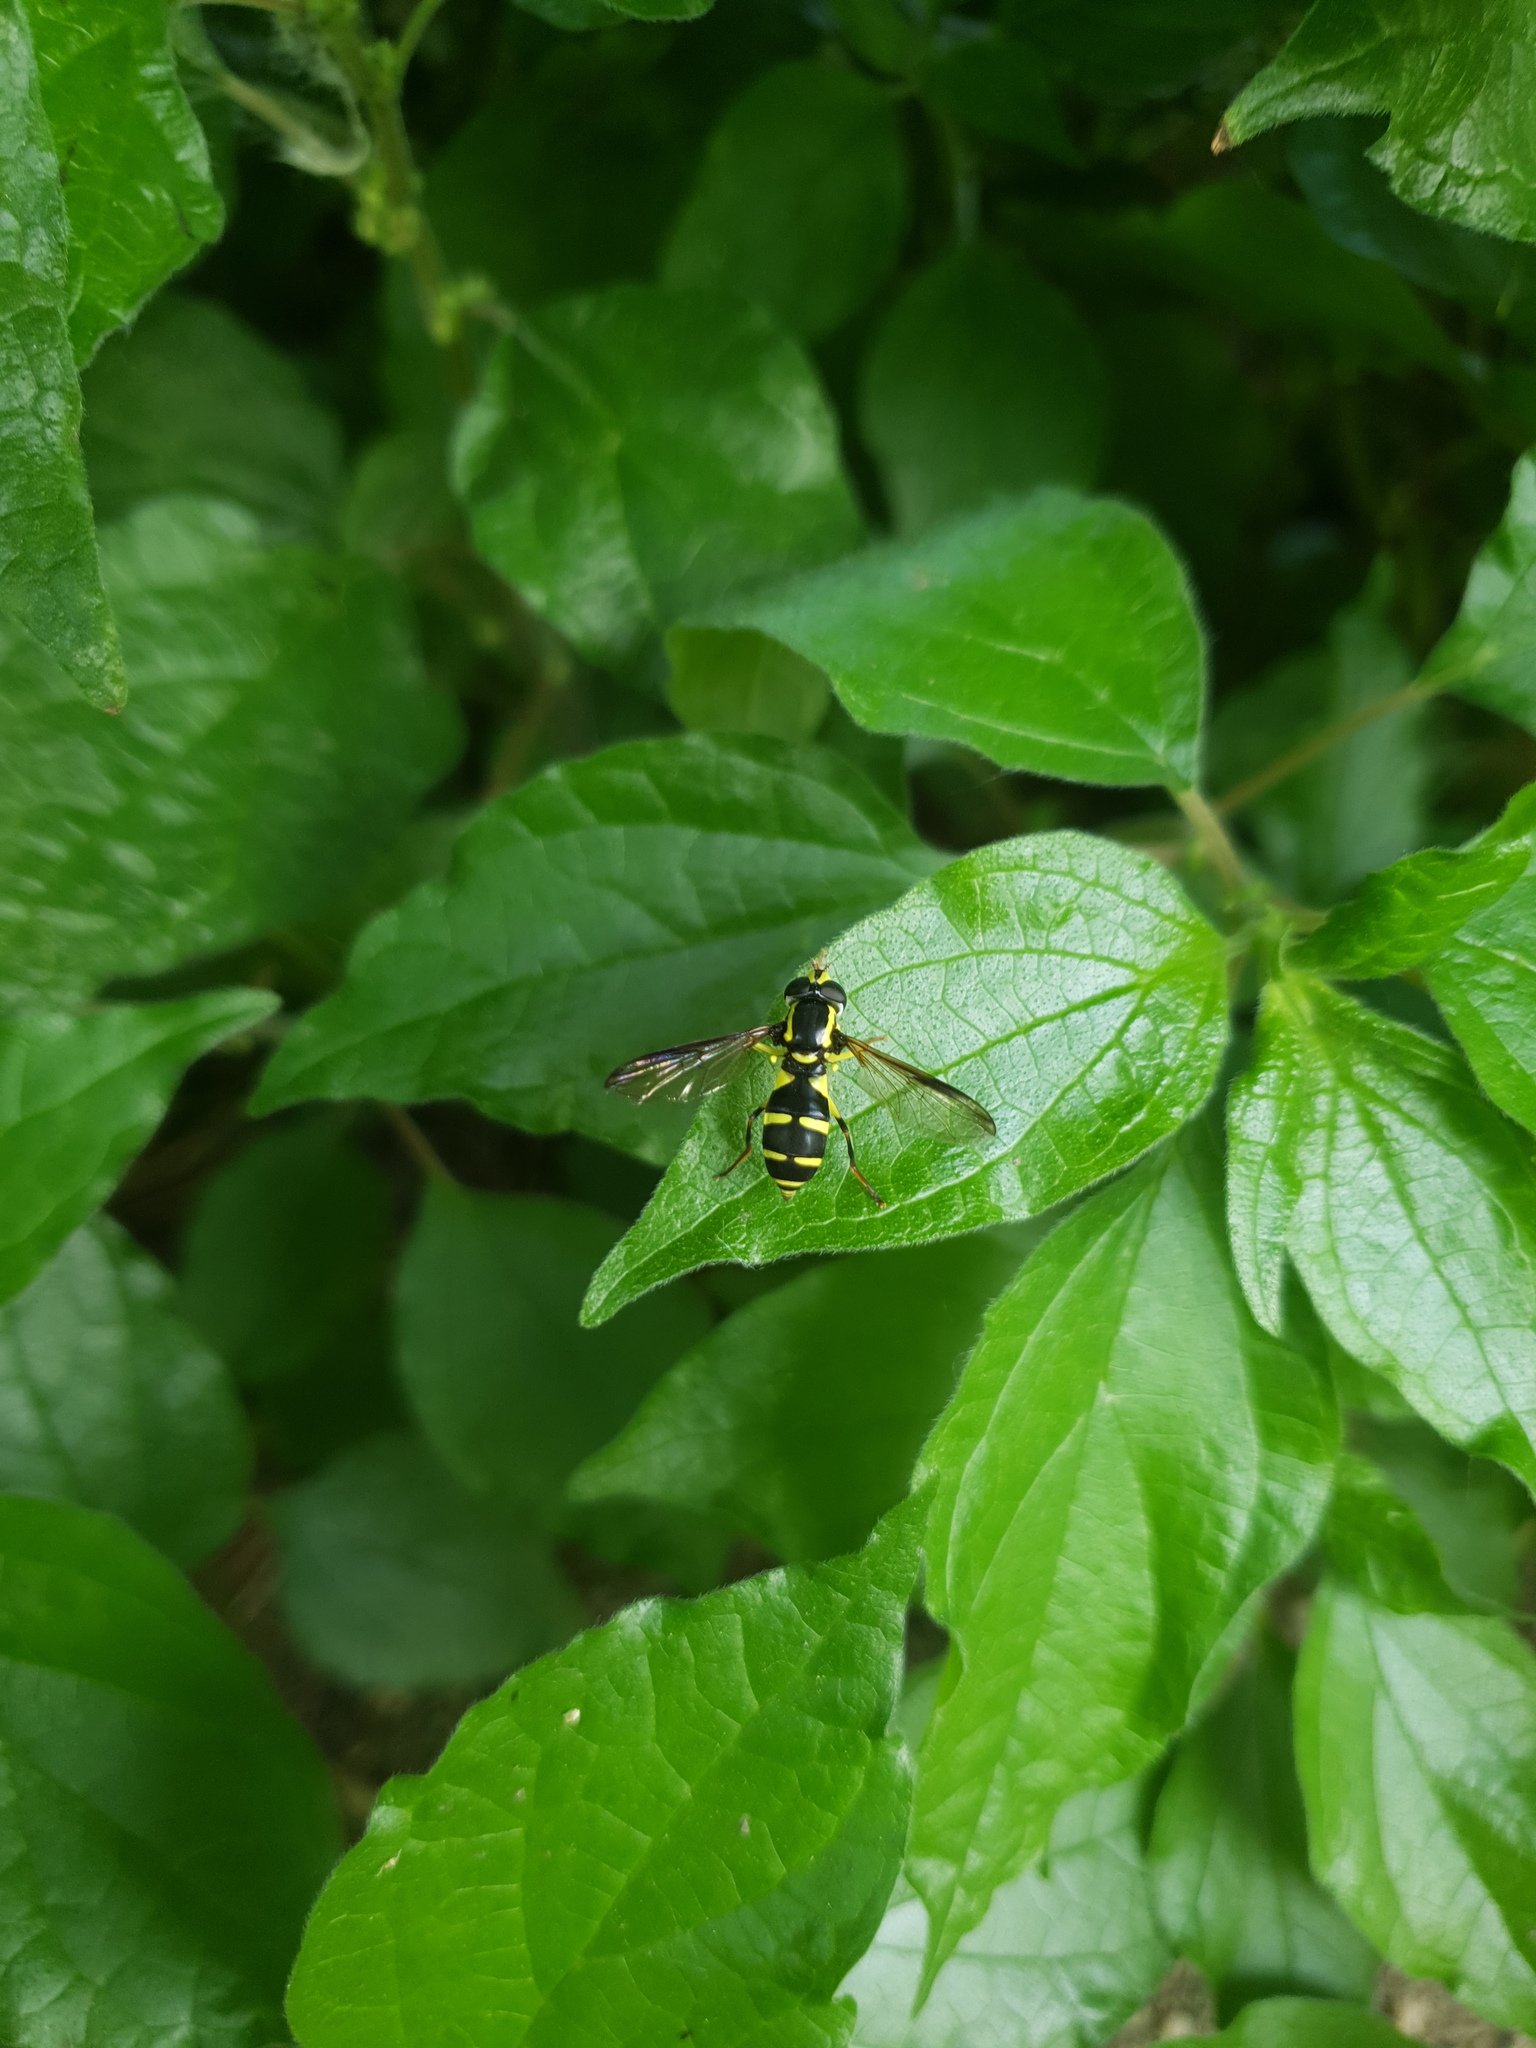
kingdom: Animalia
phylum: Arthropoda
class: Insecta
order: Diptera
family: Syrphidae
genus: Philhelius
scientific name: Philhelius dives
